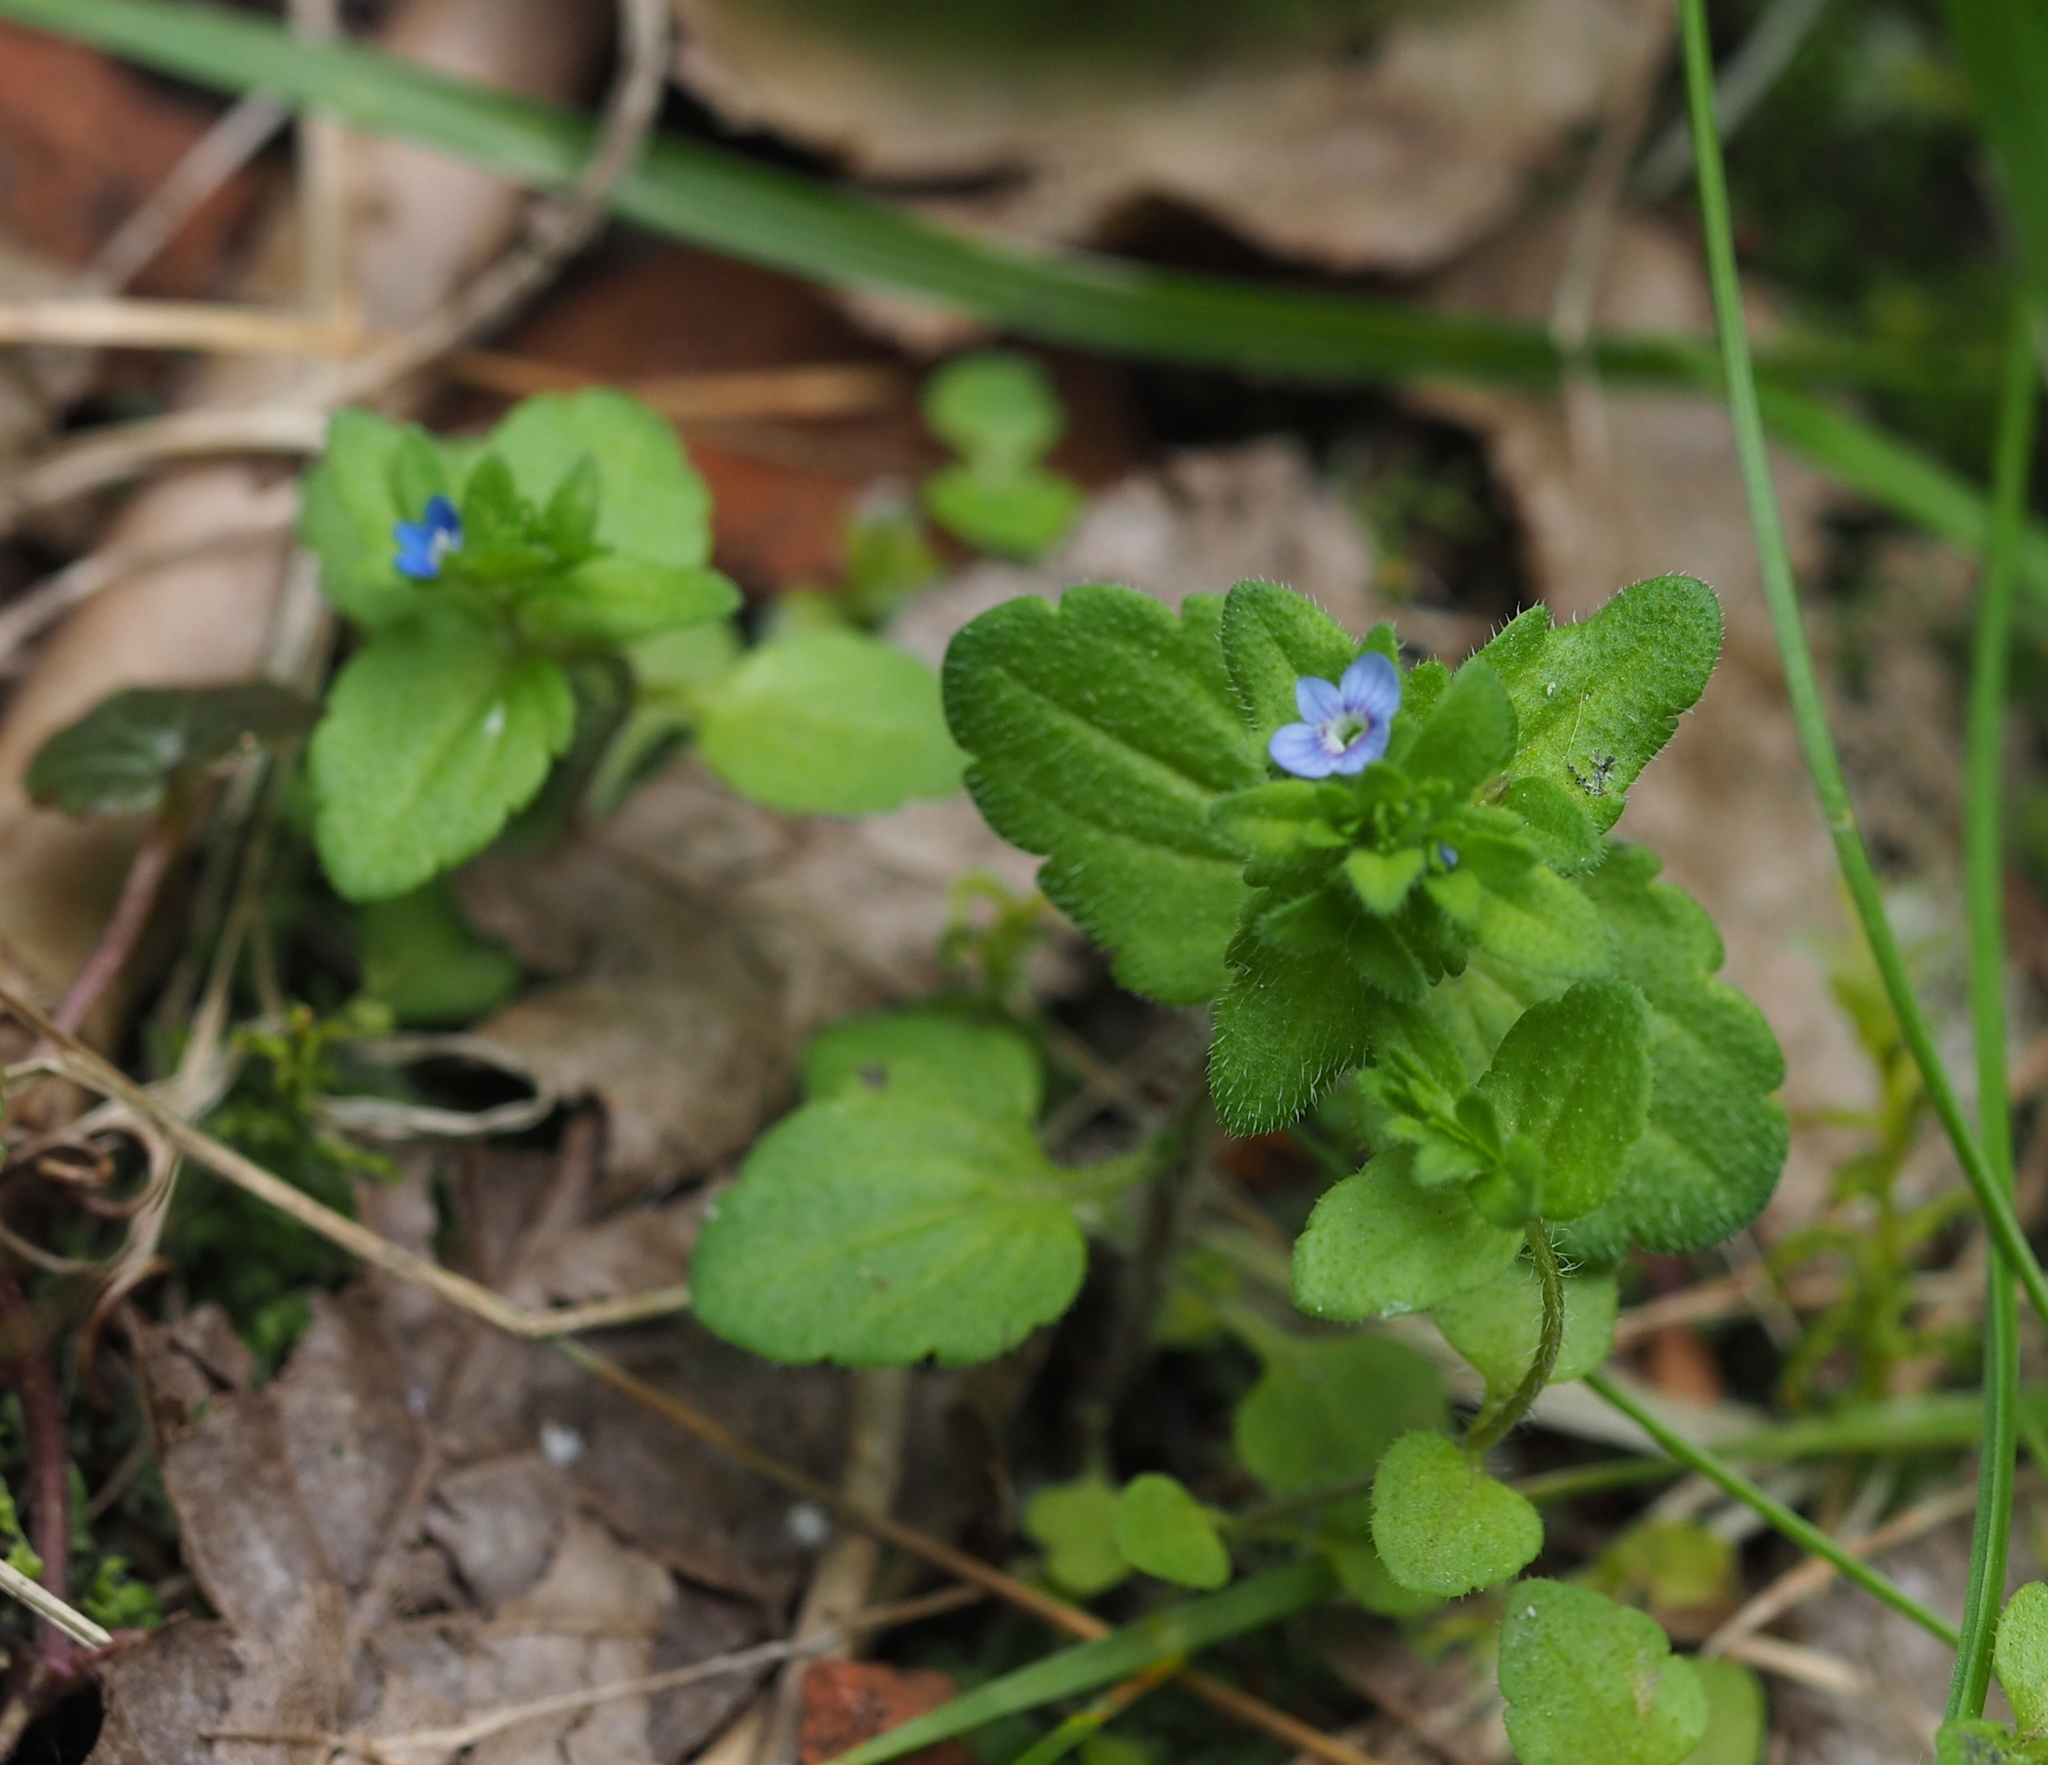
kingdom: Plantae
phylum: Tracheophyta
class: Magnoliopsida
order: Lamiales
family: Plantaginaceae
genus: Veronica
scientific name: Veronica arvensis
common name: Corn speedwell
